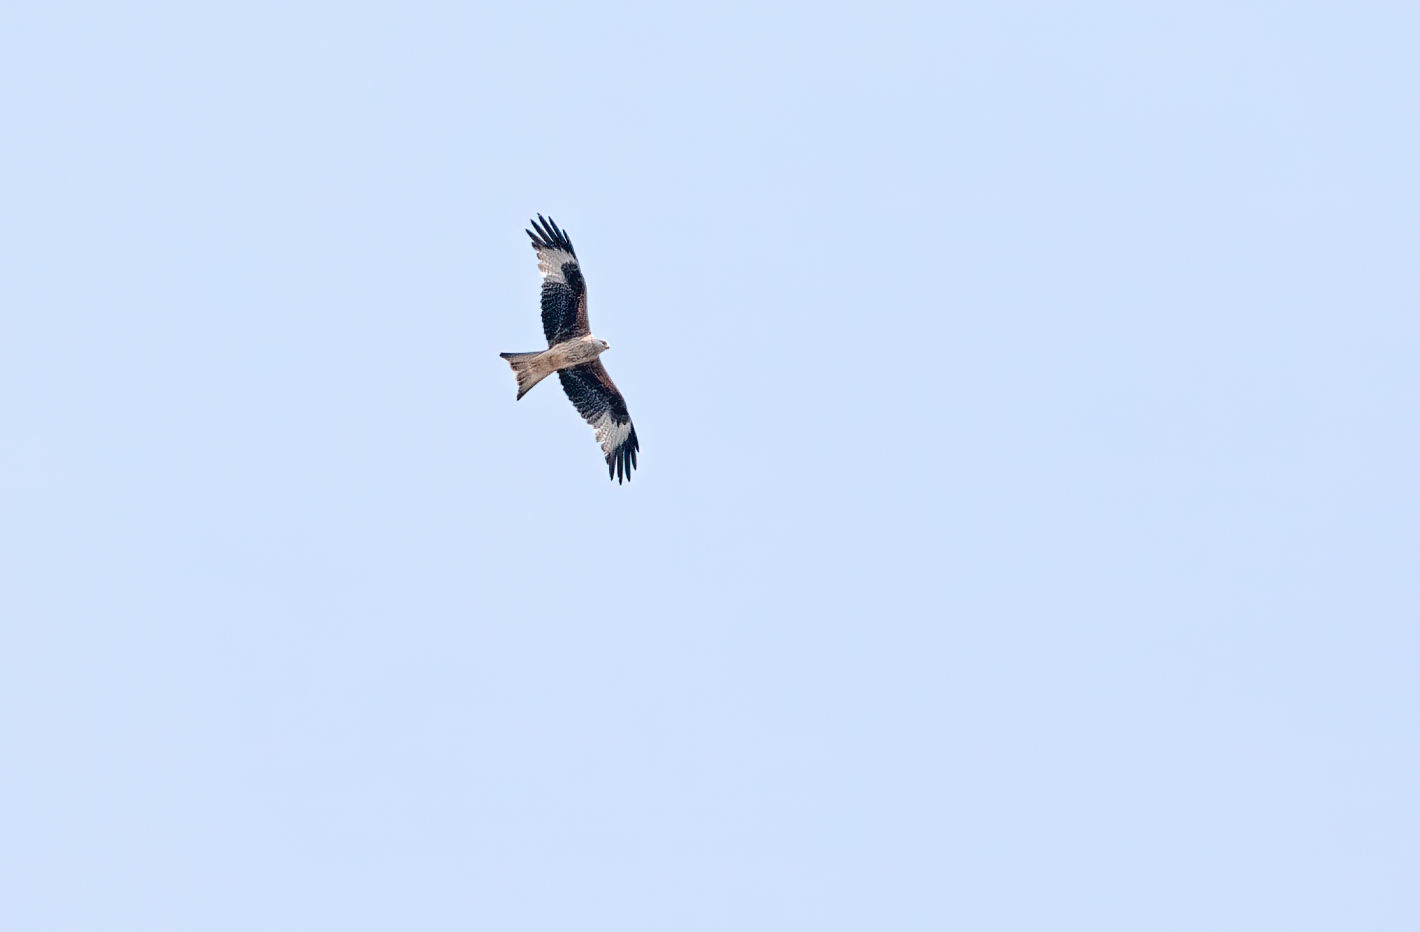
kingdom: Animalia
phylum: Chordata
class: Aves
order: Accipitriformes
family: Accipitridae
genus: Milvus
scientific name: Milvus milvus
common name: Red kite
